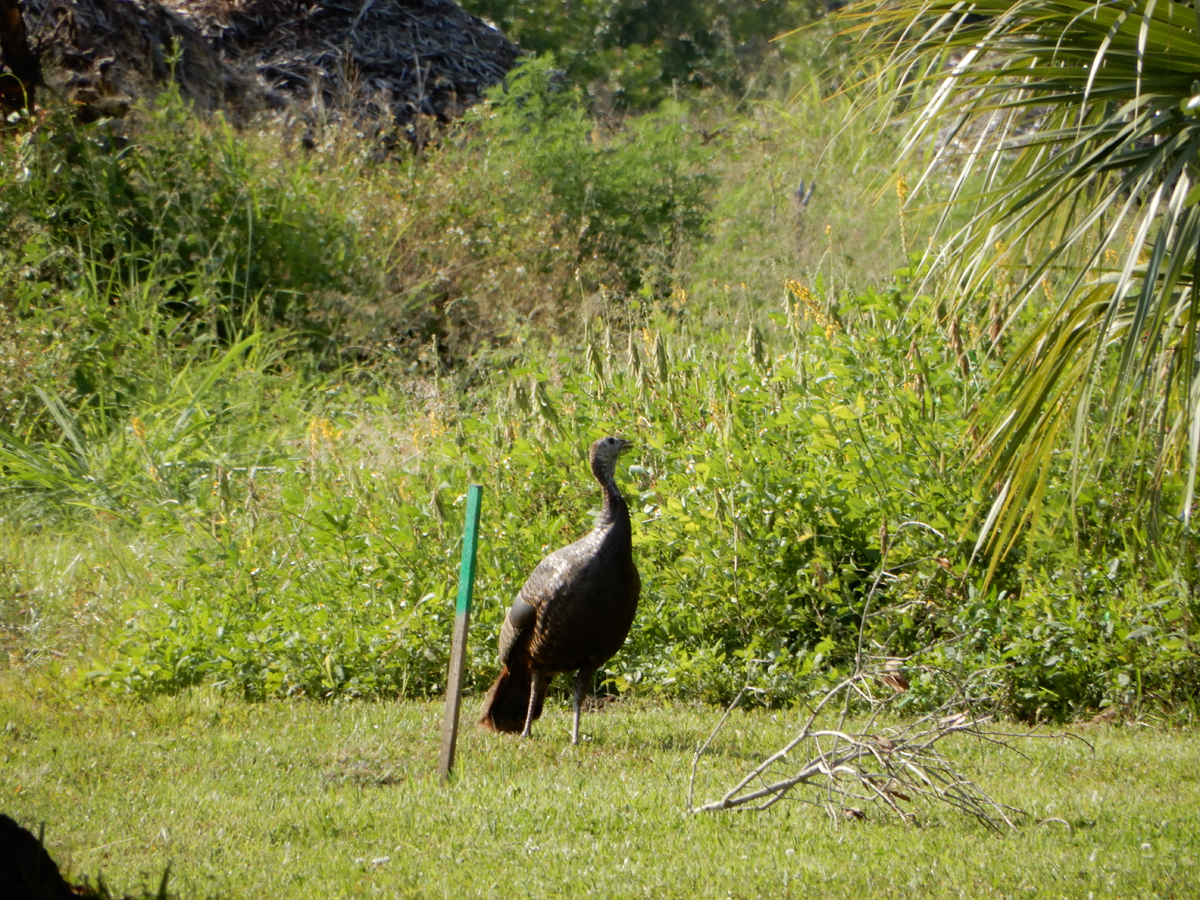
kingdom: Animalia
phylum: Chordata
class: Aves
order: Galliformes
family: Phasianidae
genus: Meleagris
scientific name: Meleagris gallopavo
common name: Wild turkey
